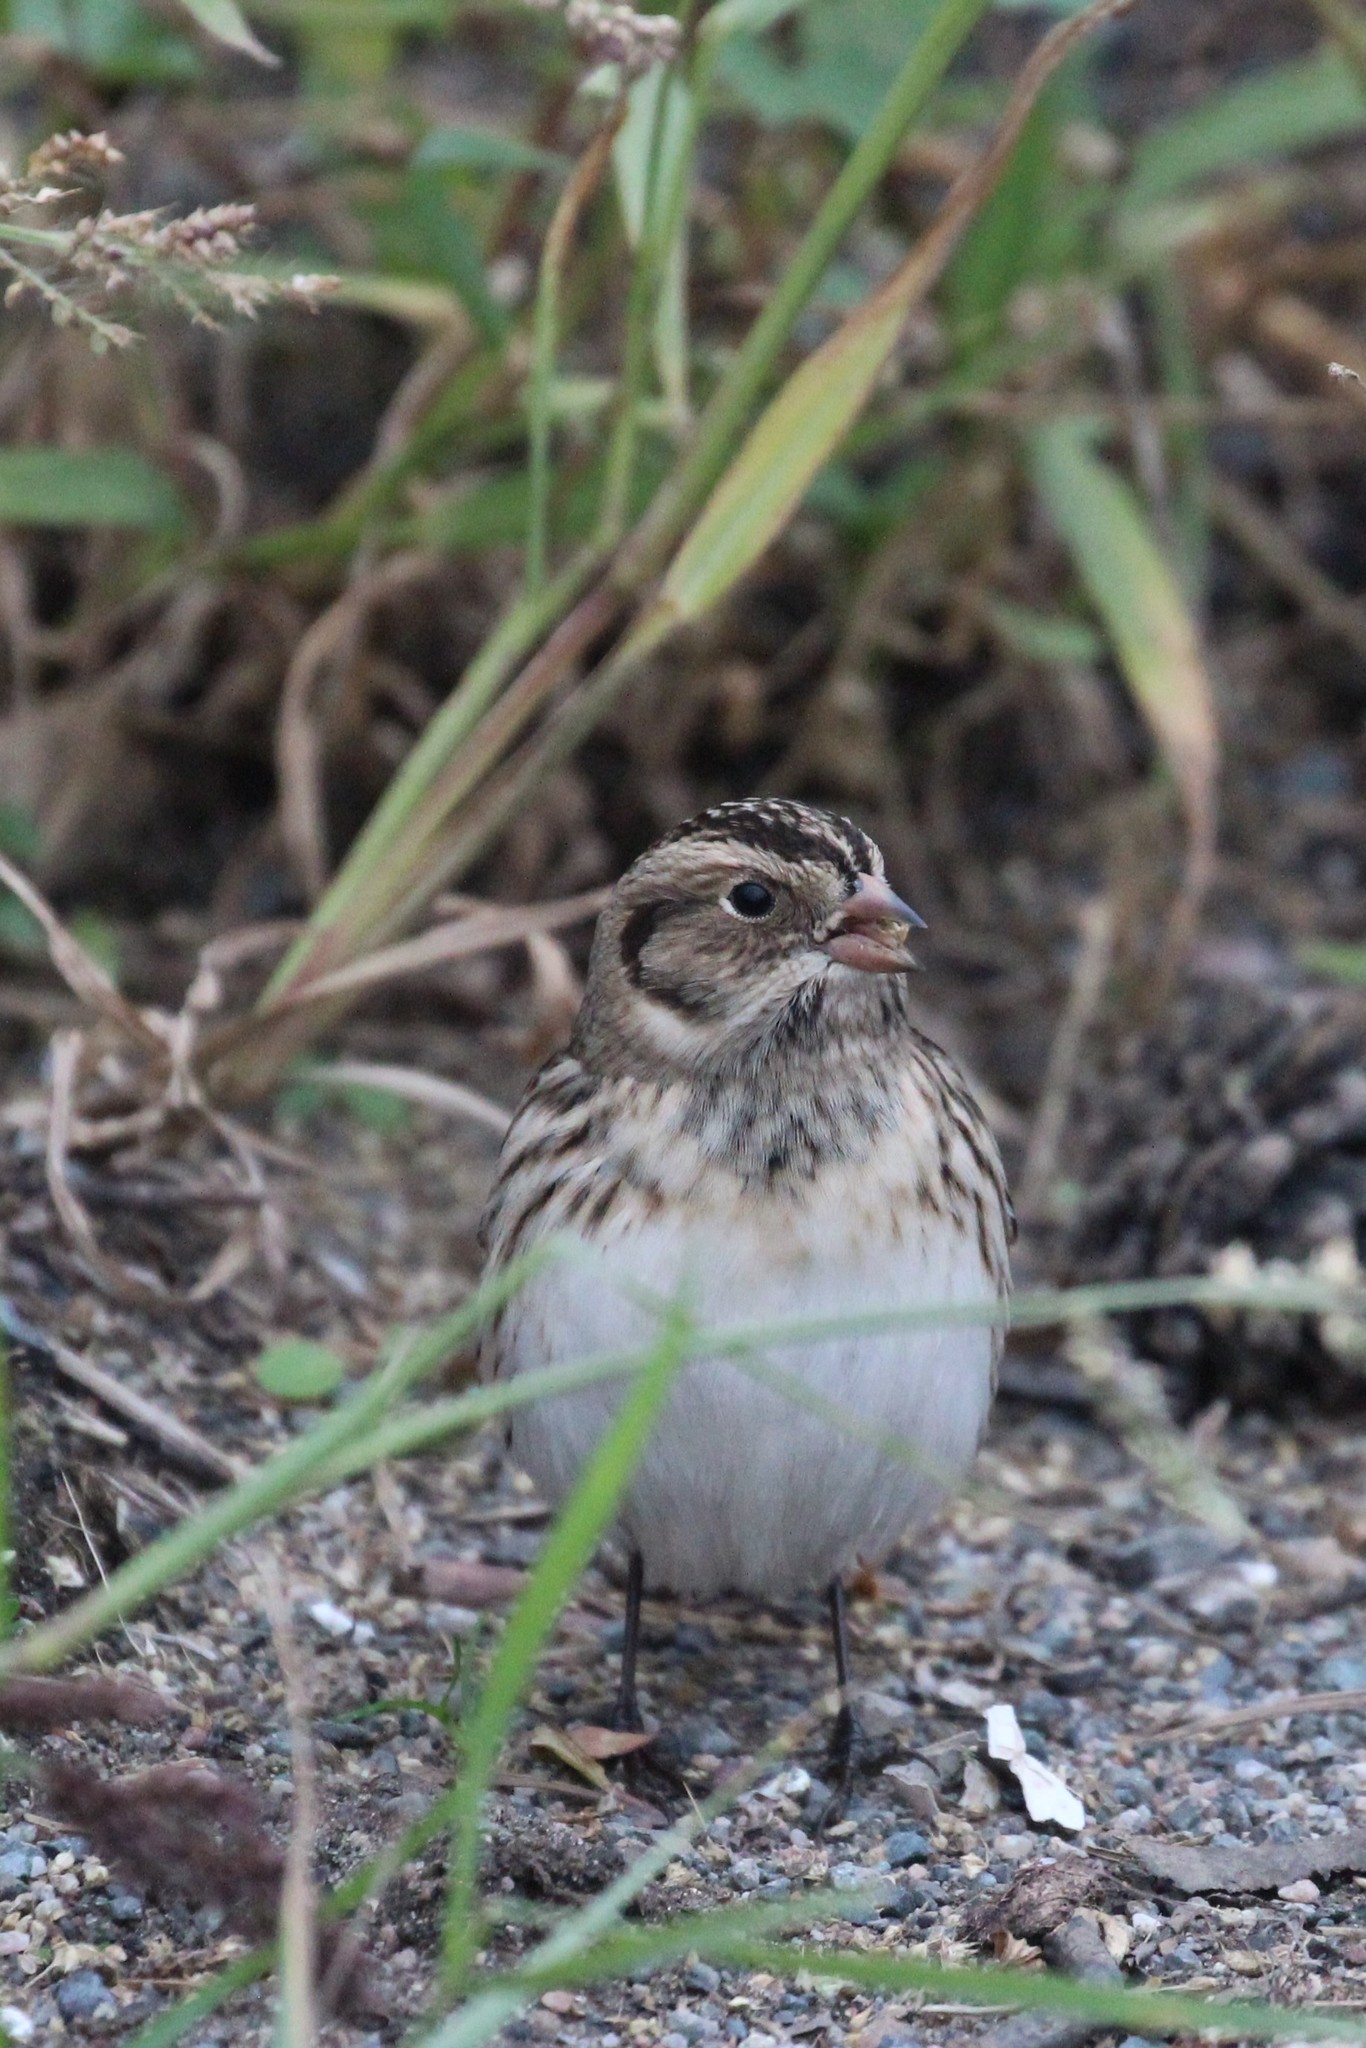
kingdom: Animalia
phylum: Chordata
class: Aves
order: Passeriformes
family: Calcariidae
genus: Calcarius
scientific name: Calcarius lapponicus
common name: Lapland longspur
